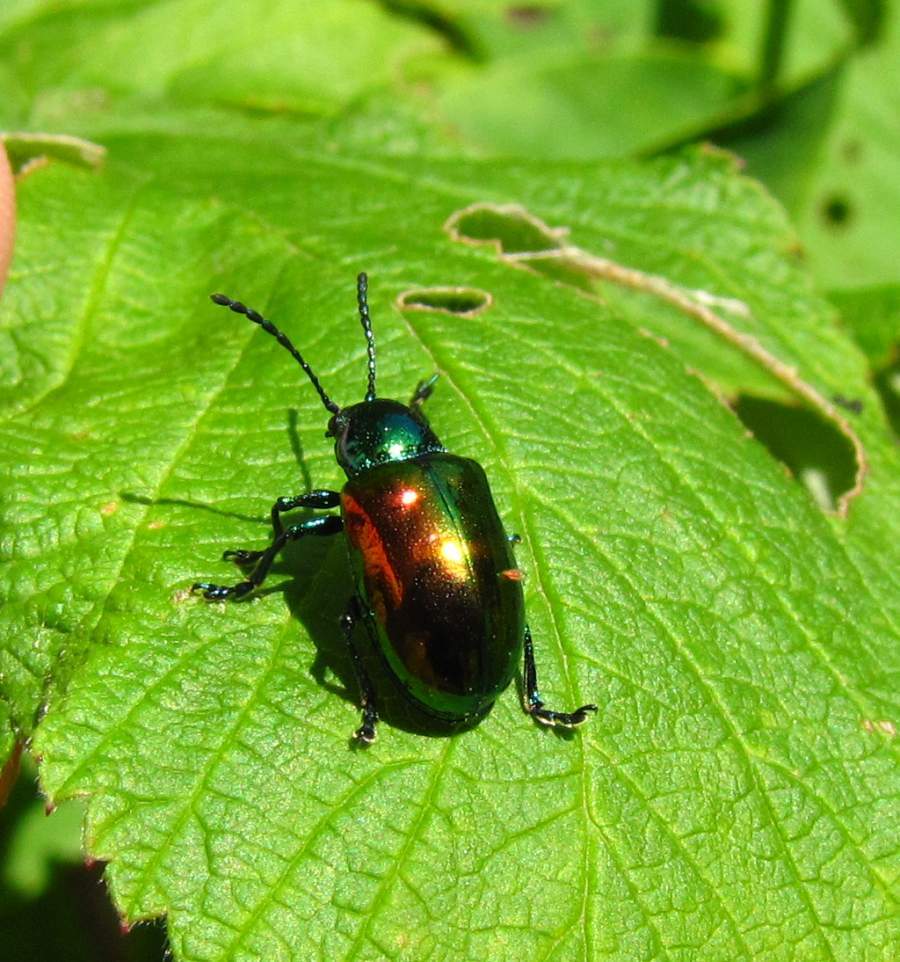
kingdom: Animalia
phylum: Arthropoda
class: Insecta
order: Coleoptera
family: Chrysomelidae
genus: Chrysochus
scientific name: Chrysochus auratus
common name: Dogbane leaf beetle
